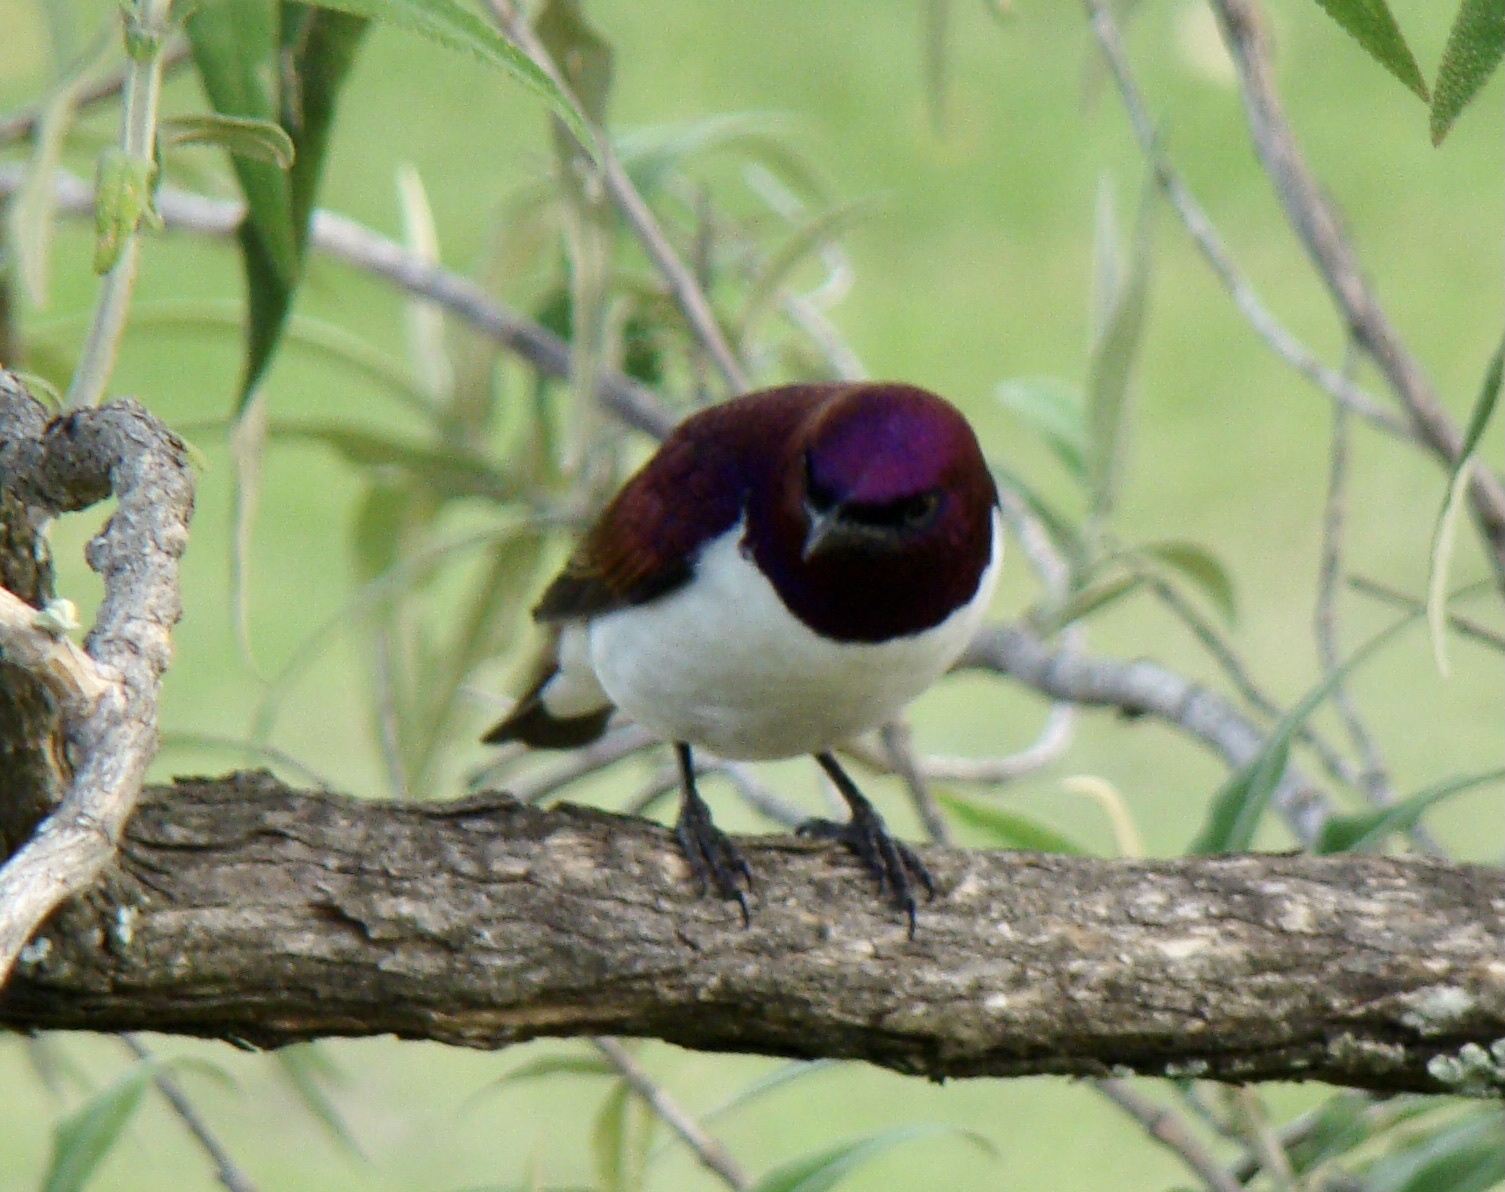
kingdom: Animalia
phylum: Chordata
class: Aves
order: Passeriformes
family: Sturnidae
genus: Cinnyricinclus
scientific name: Cinnyricinclus leucogaster
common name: Violet-backed starling
